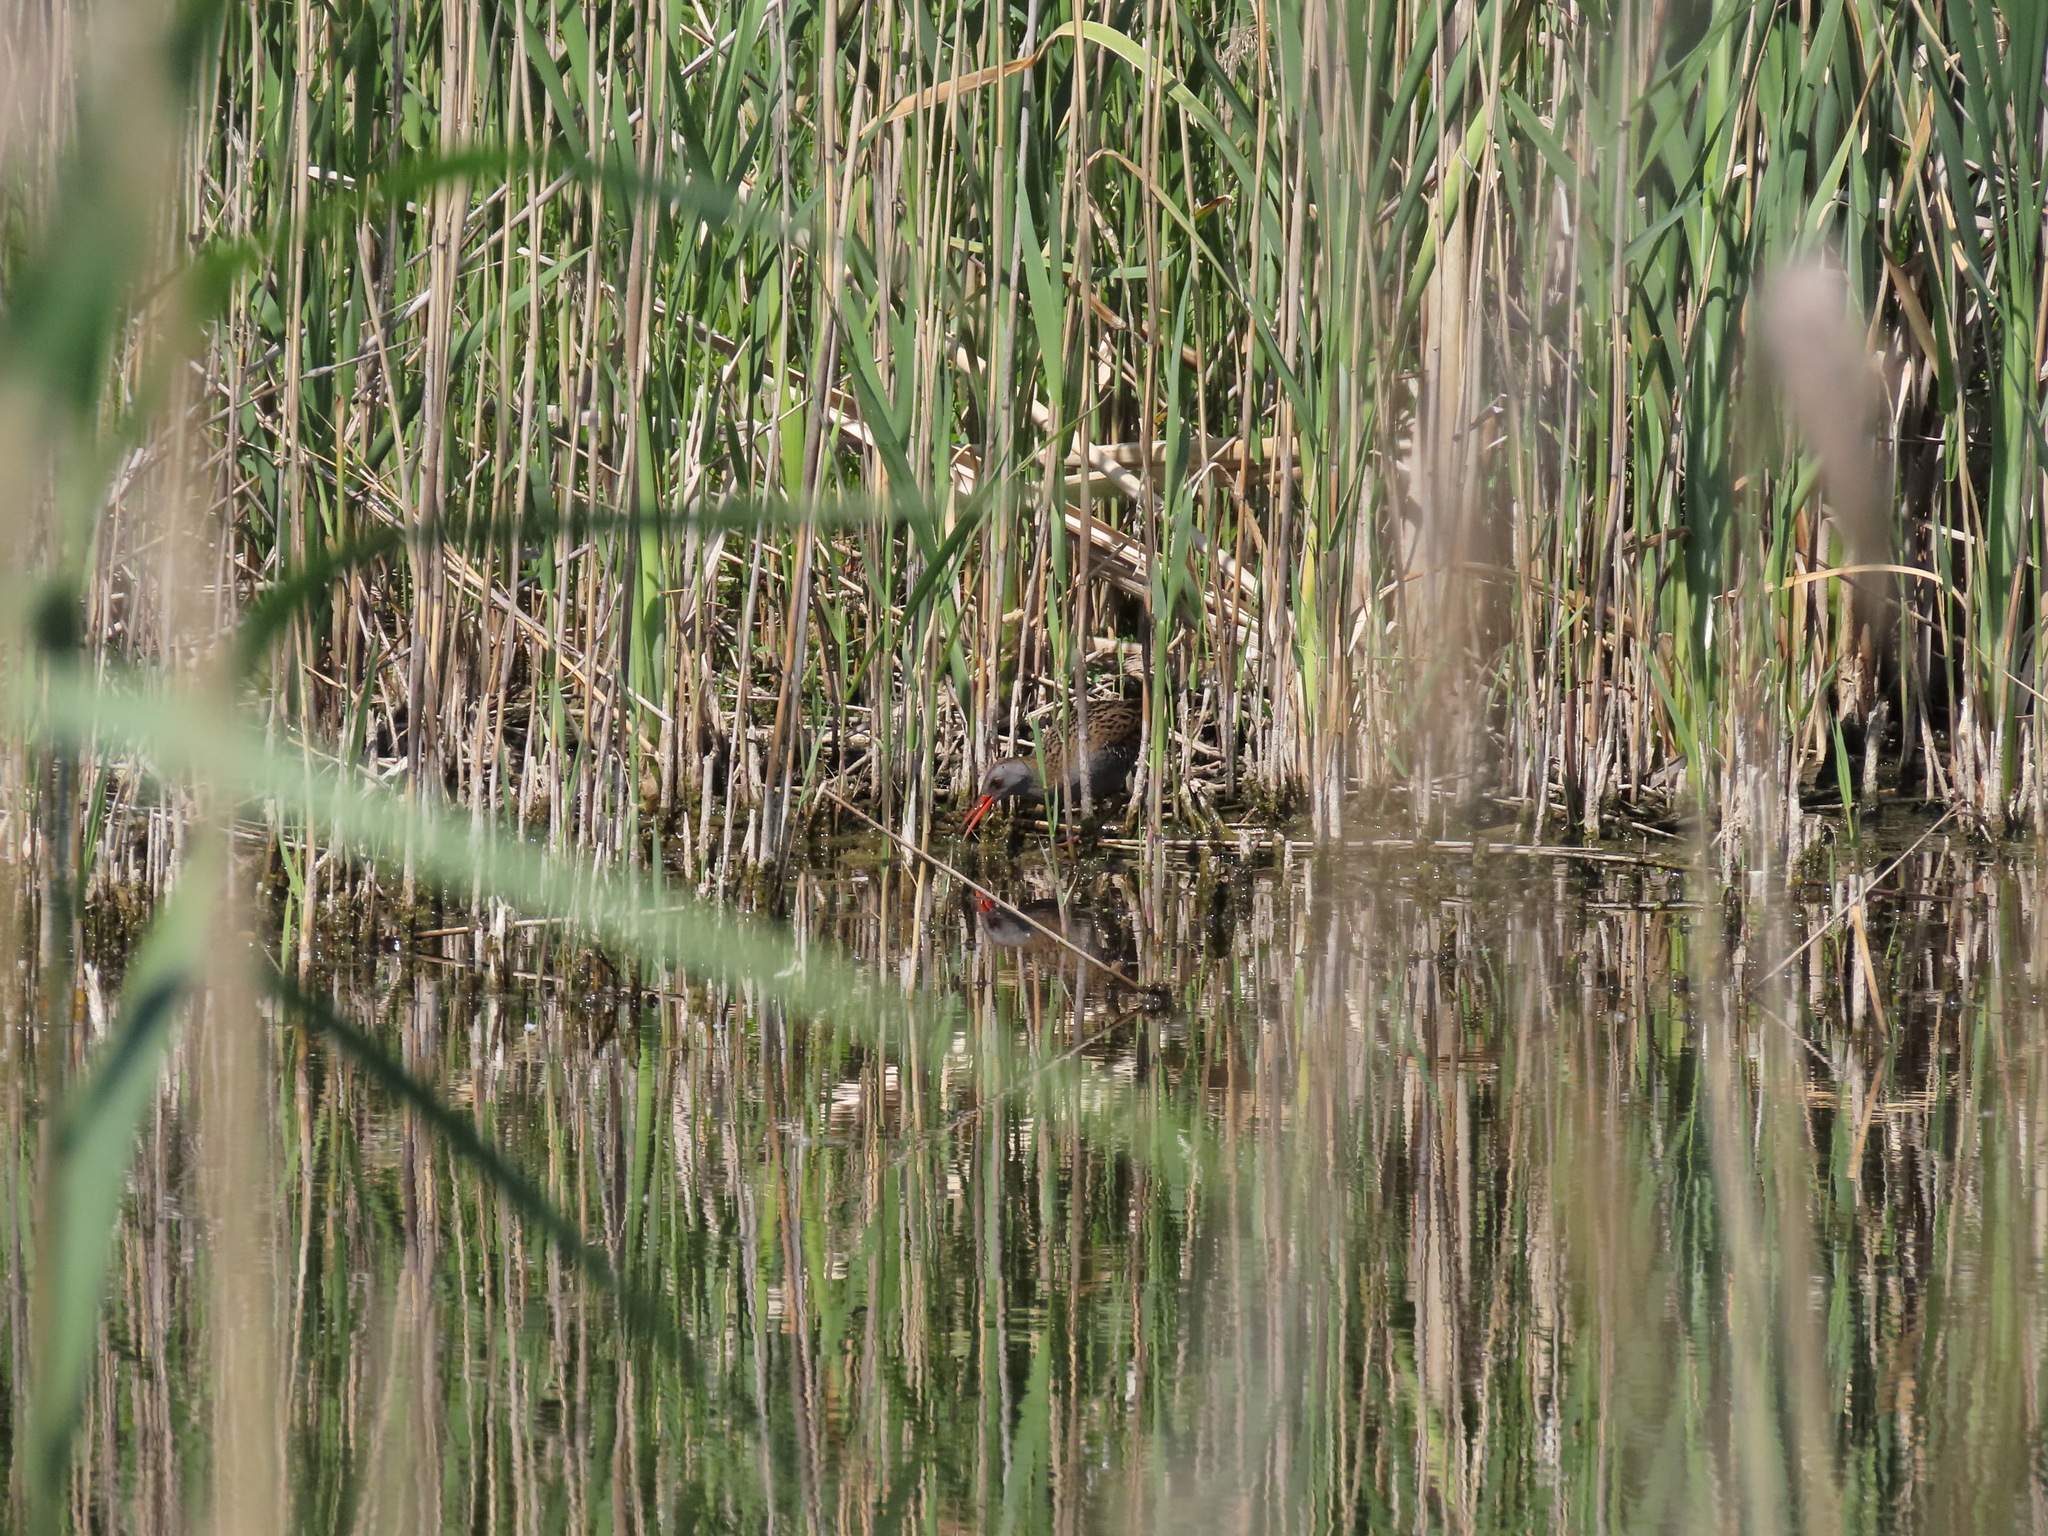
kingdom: Animalia
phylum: Chordata
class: Aves
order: Gruiformes
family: Rallidae
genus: Rallus
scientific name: Rallus aquaticus
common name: Water rail
